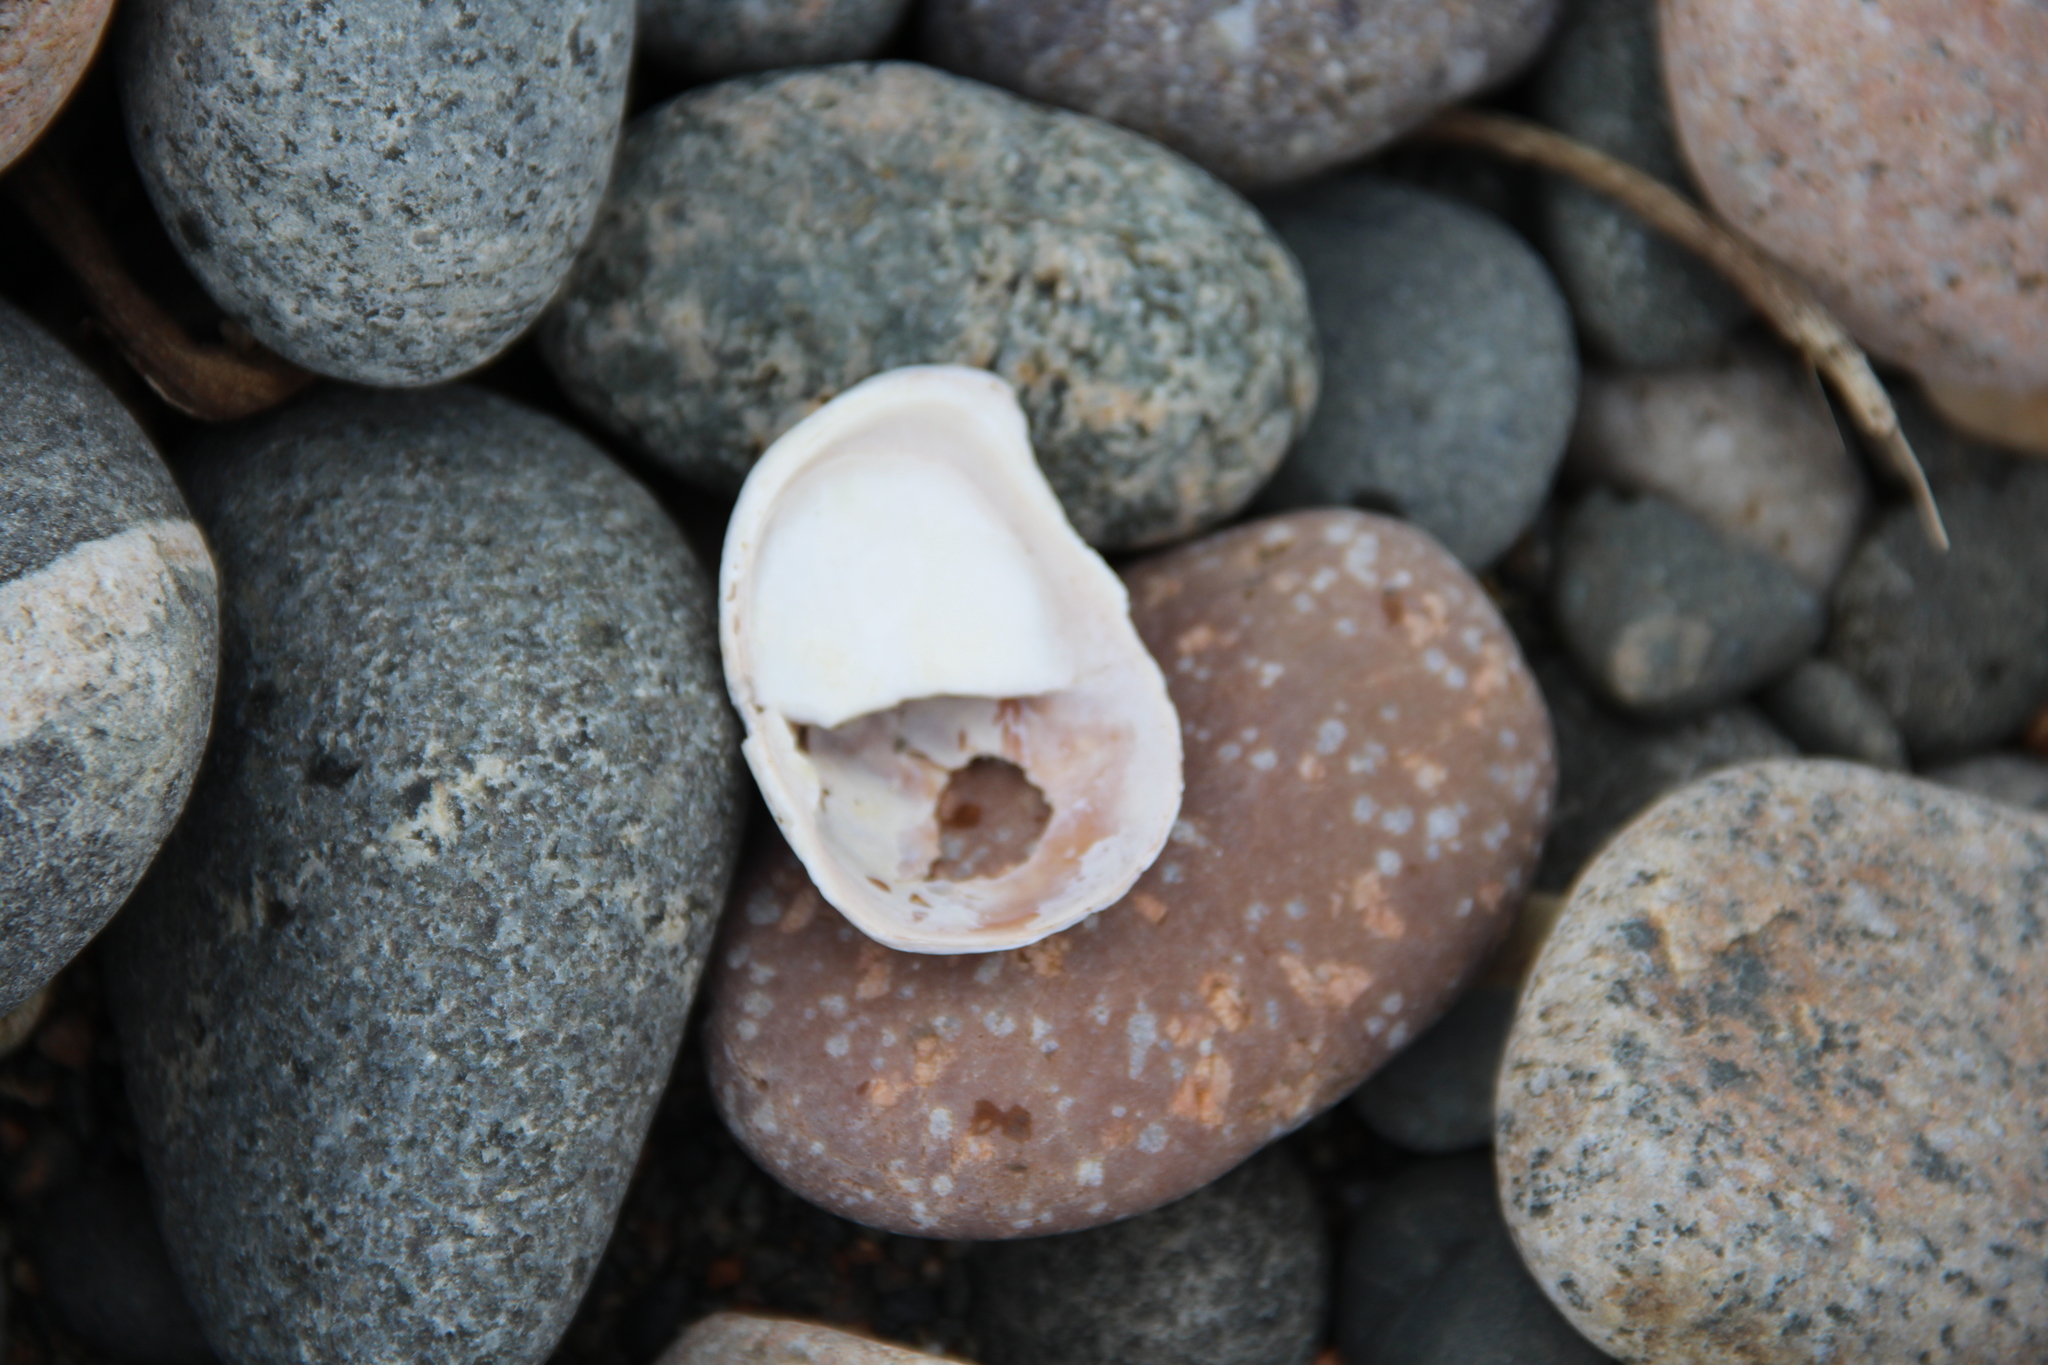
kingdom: Animalia
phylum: Mollusca
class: Gastropoda
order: Littorinimorpha
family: Calyptraeidae
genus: Crepidula
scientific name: Crepidula fornicata
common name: Slipper limpet
